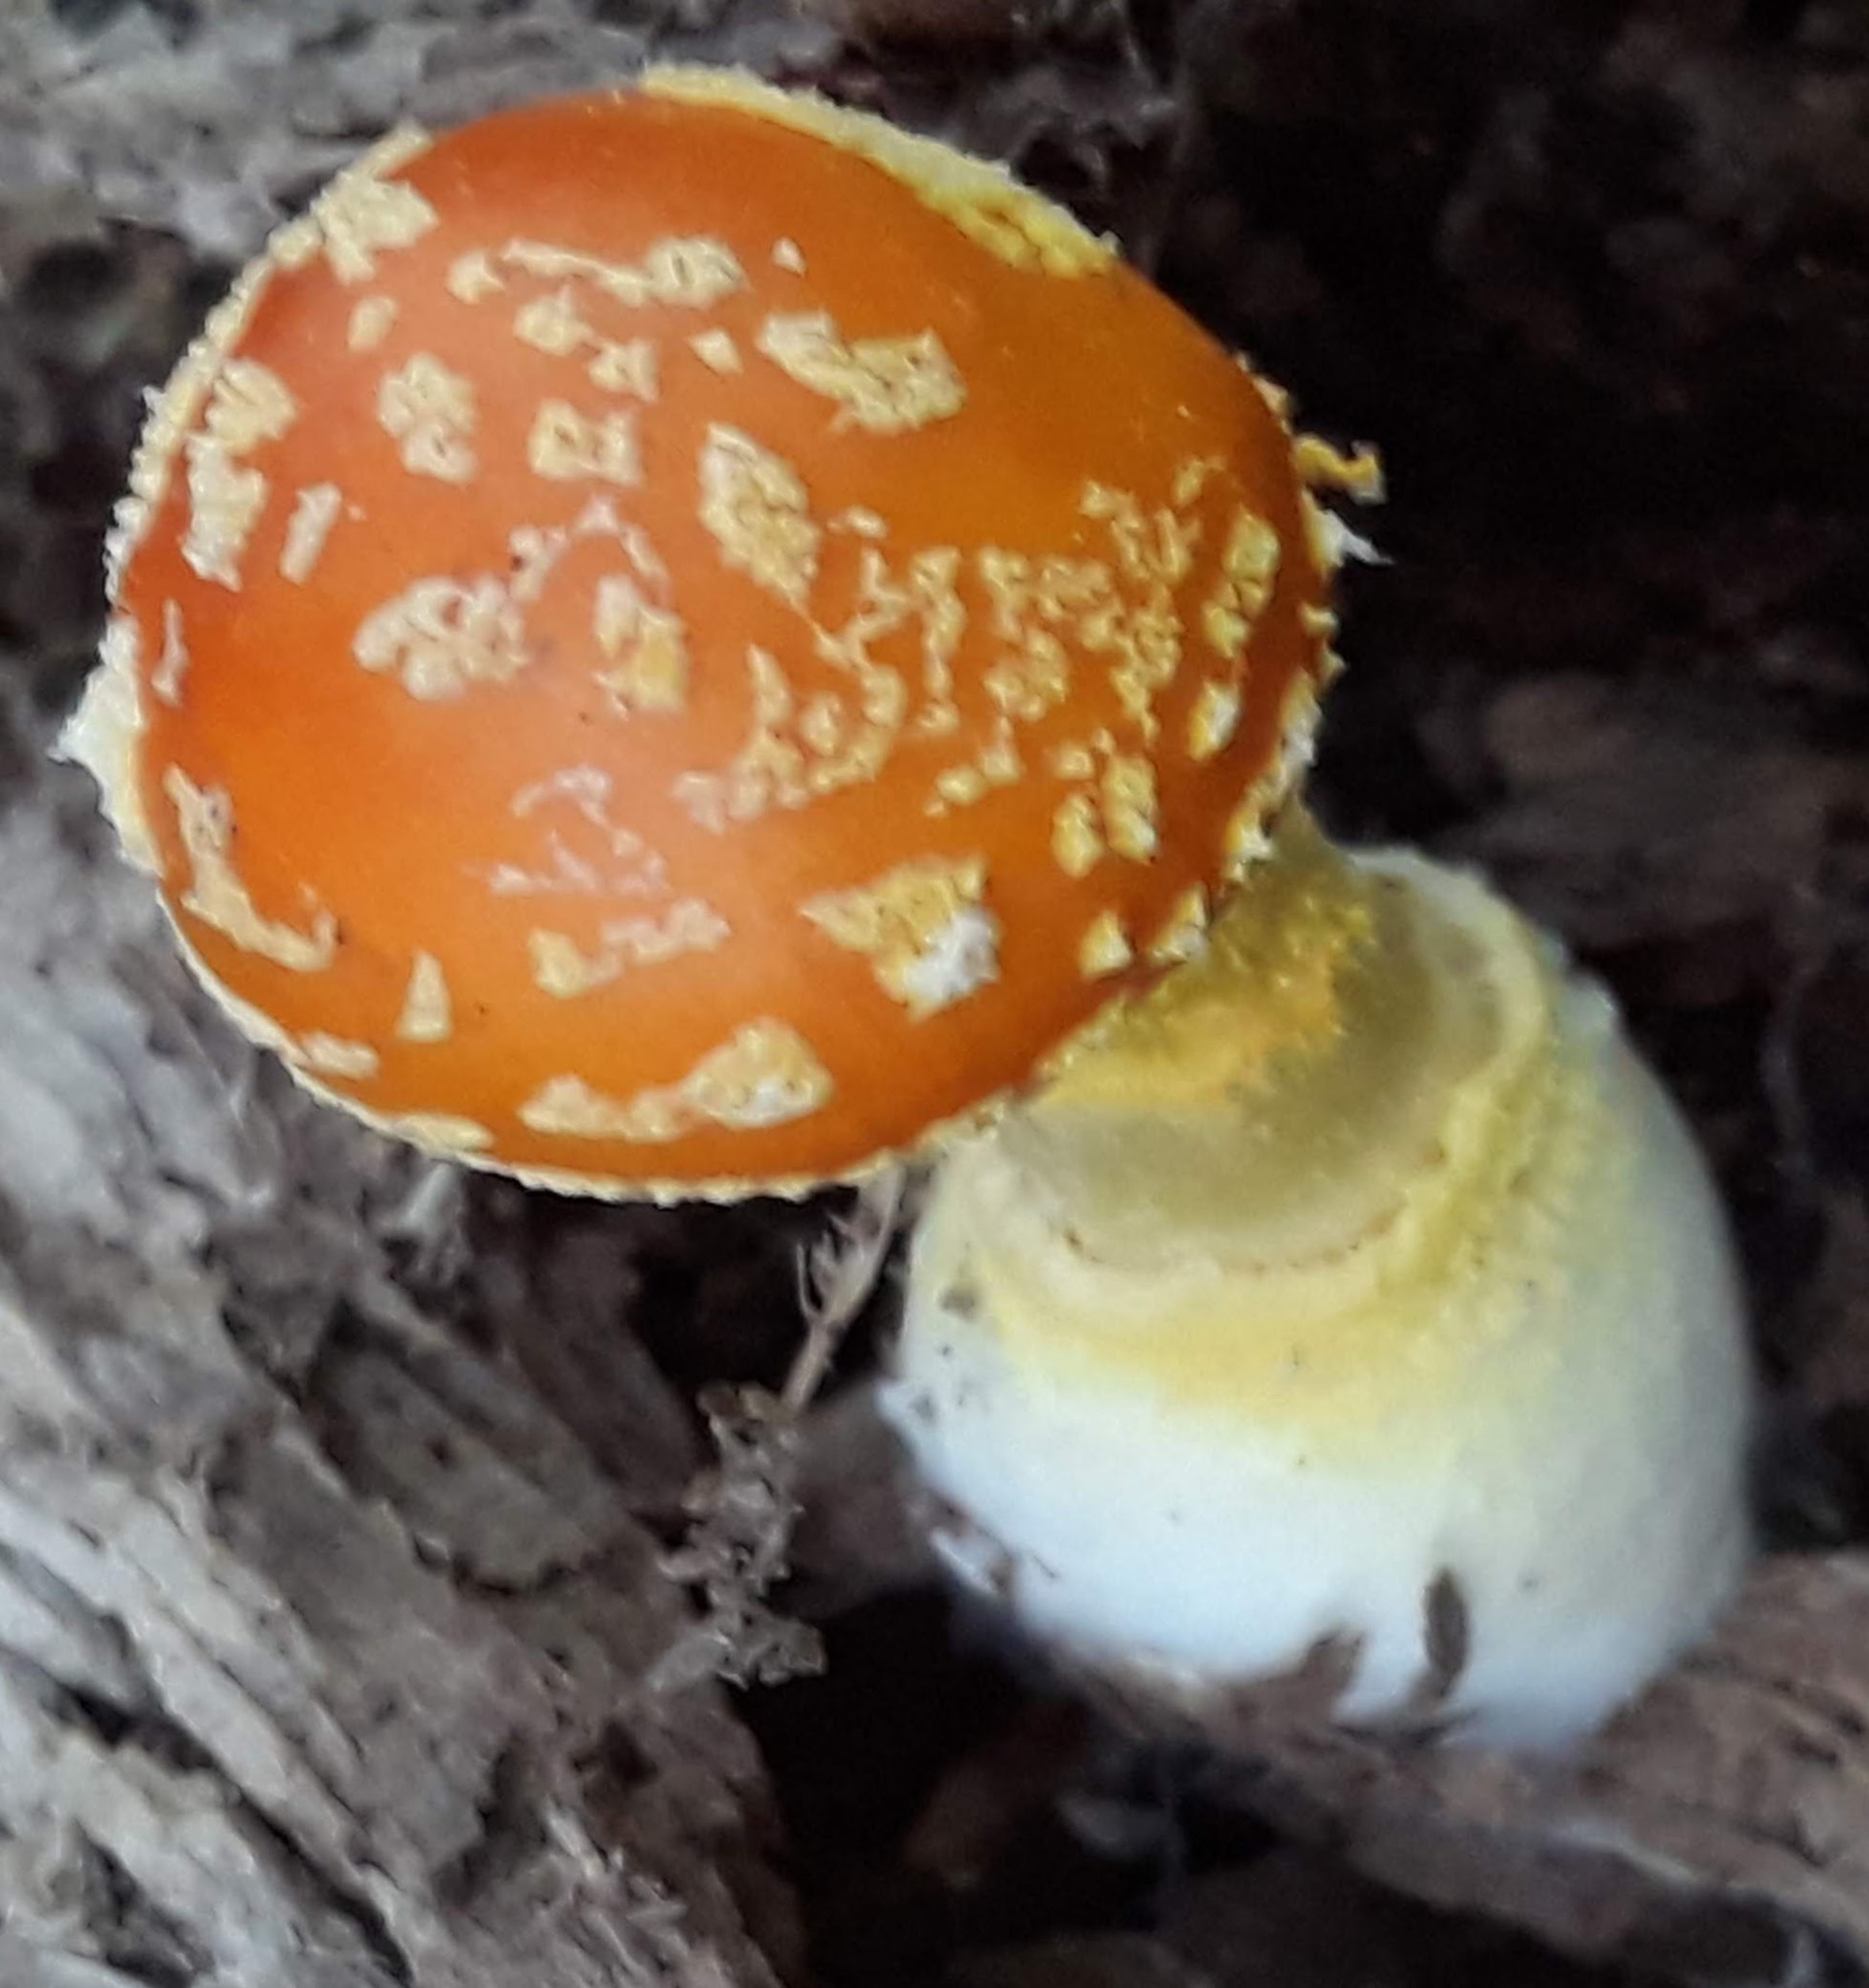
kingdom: Fungi
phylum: Basidiomycota
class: Agaricomycetes
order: Agaricales
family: Amanitaceae
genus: Amanita
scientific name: Amanita flavoconia
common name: Yellow patches
